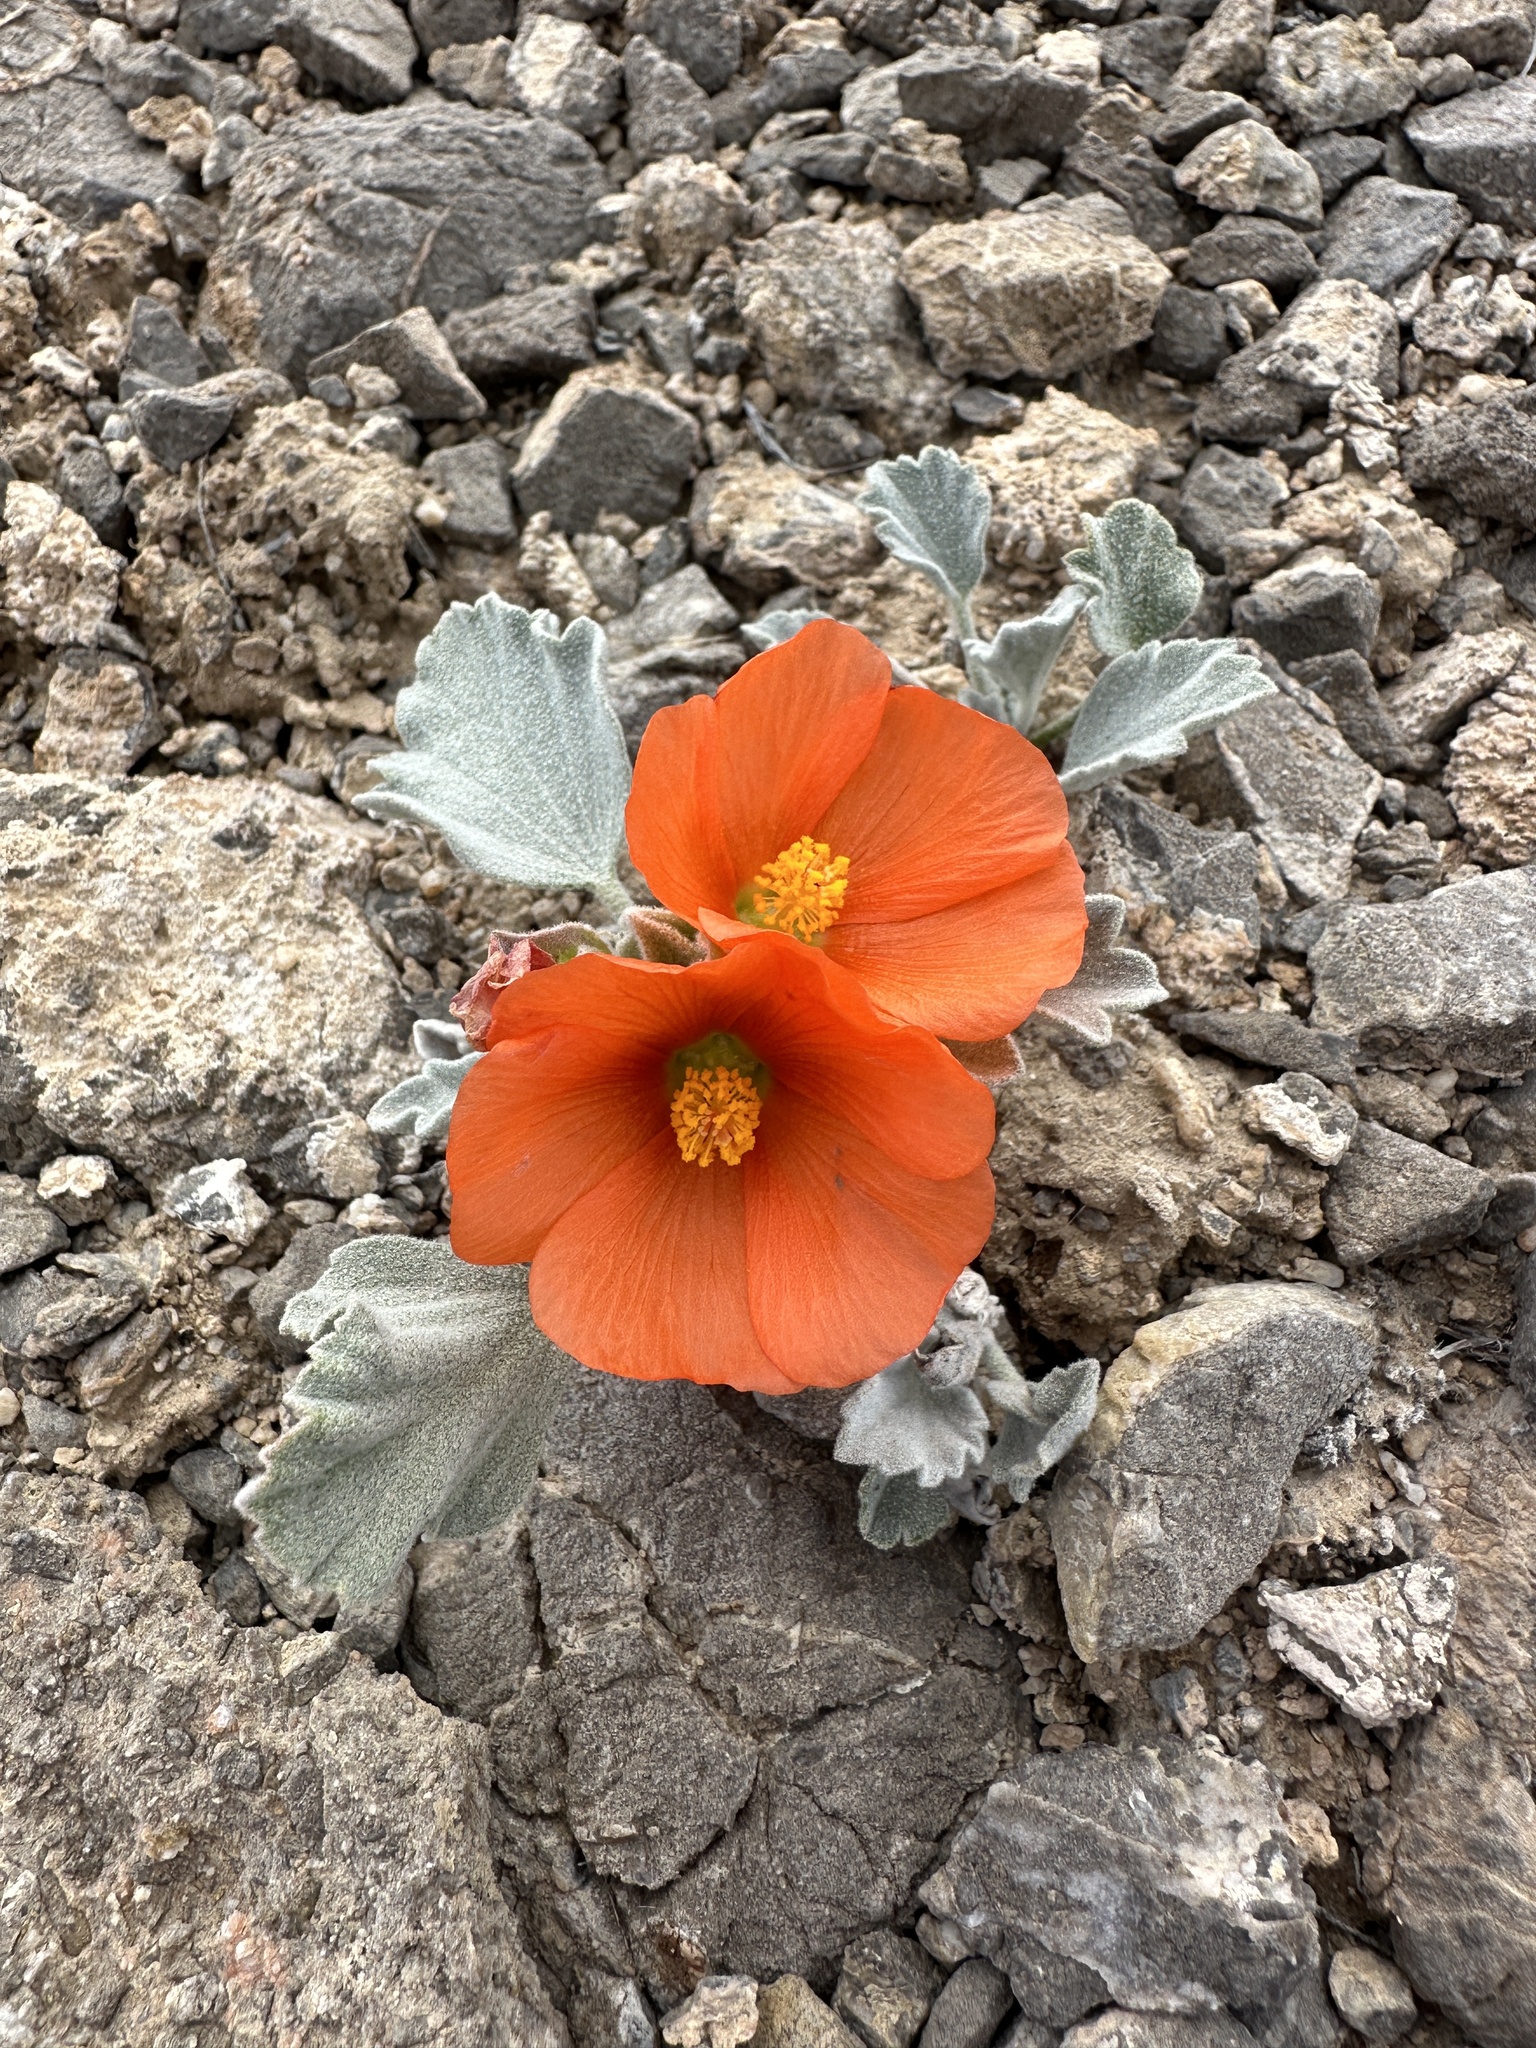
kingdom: Plantae
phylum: Tracheophyta
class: Magnoliopsida
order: Malvales
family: Malvaceae
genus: Sphaeralcea
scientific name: Sphaeralcea caespitosa
